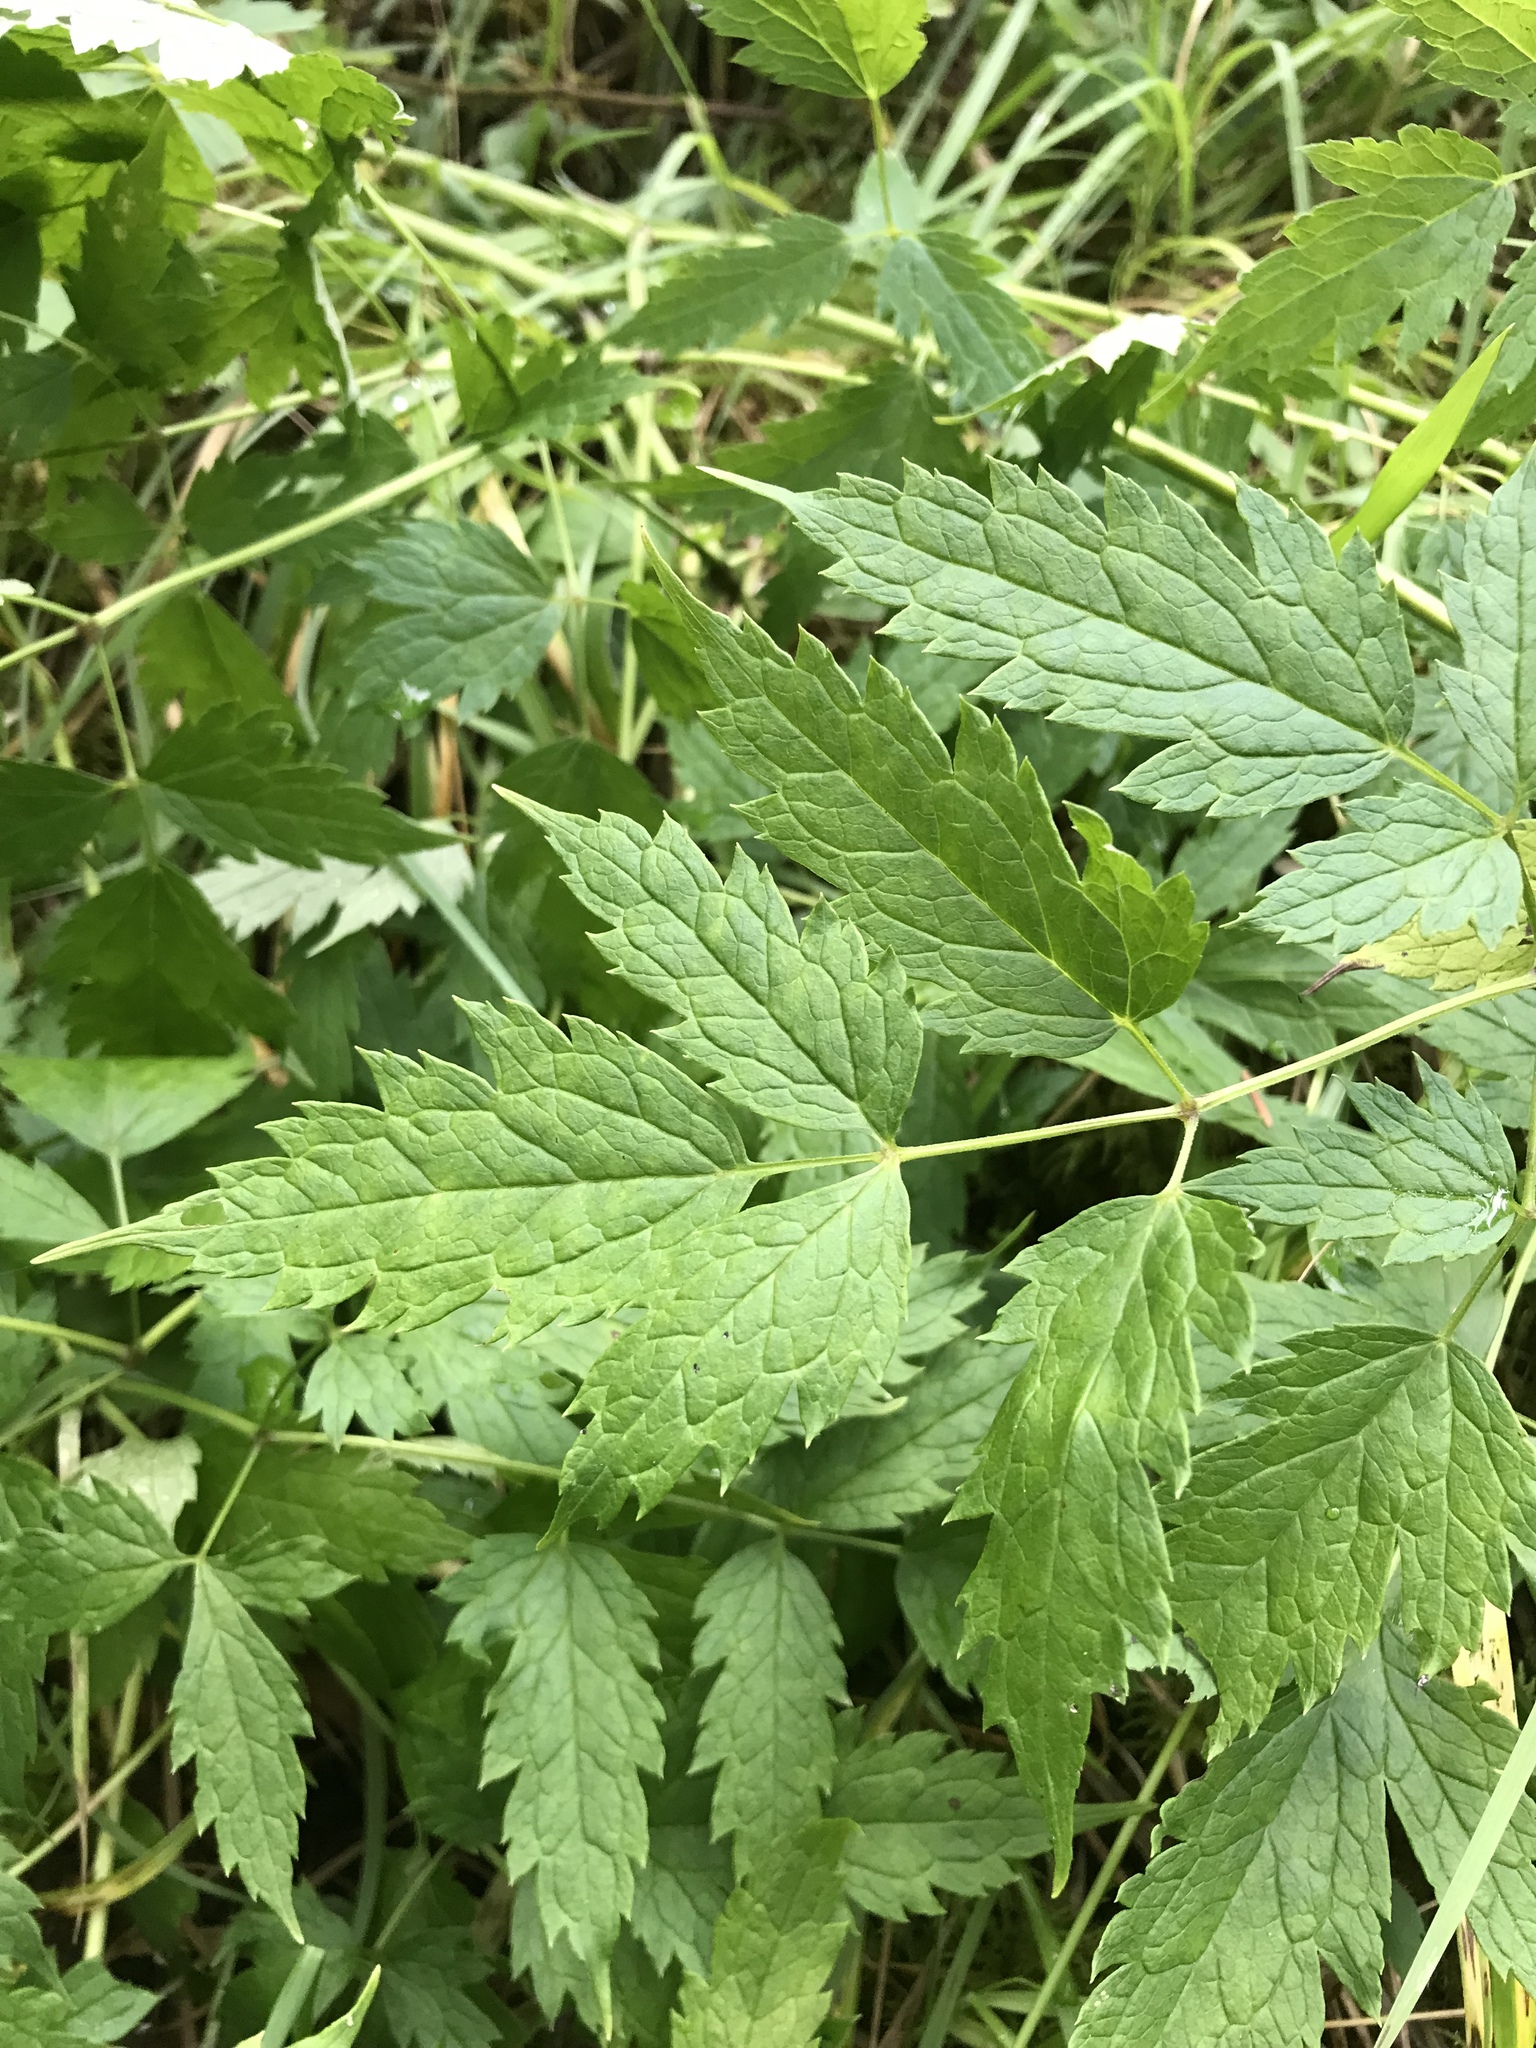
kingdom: Plantae
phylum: Tracheophyta
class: Magnoliopsida
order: Ranunculales
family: Ranunculaceae
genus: Actaea
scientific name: Actaea rubra
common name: Red baneberry
